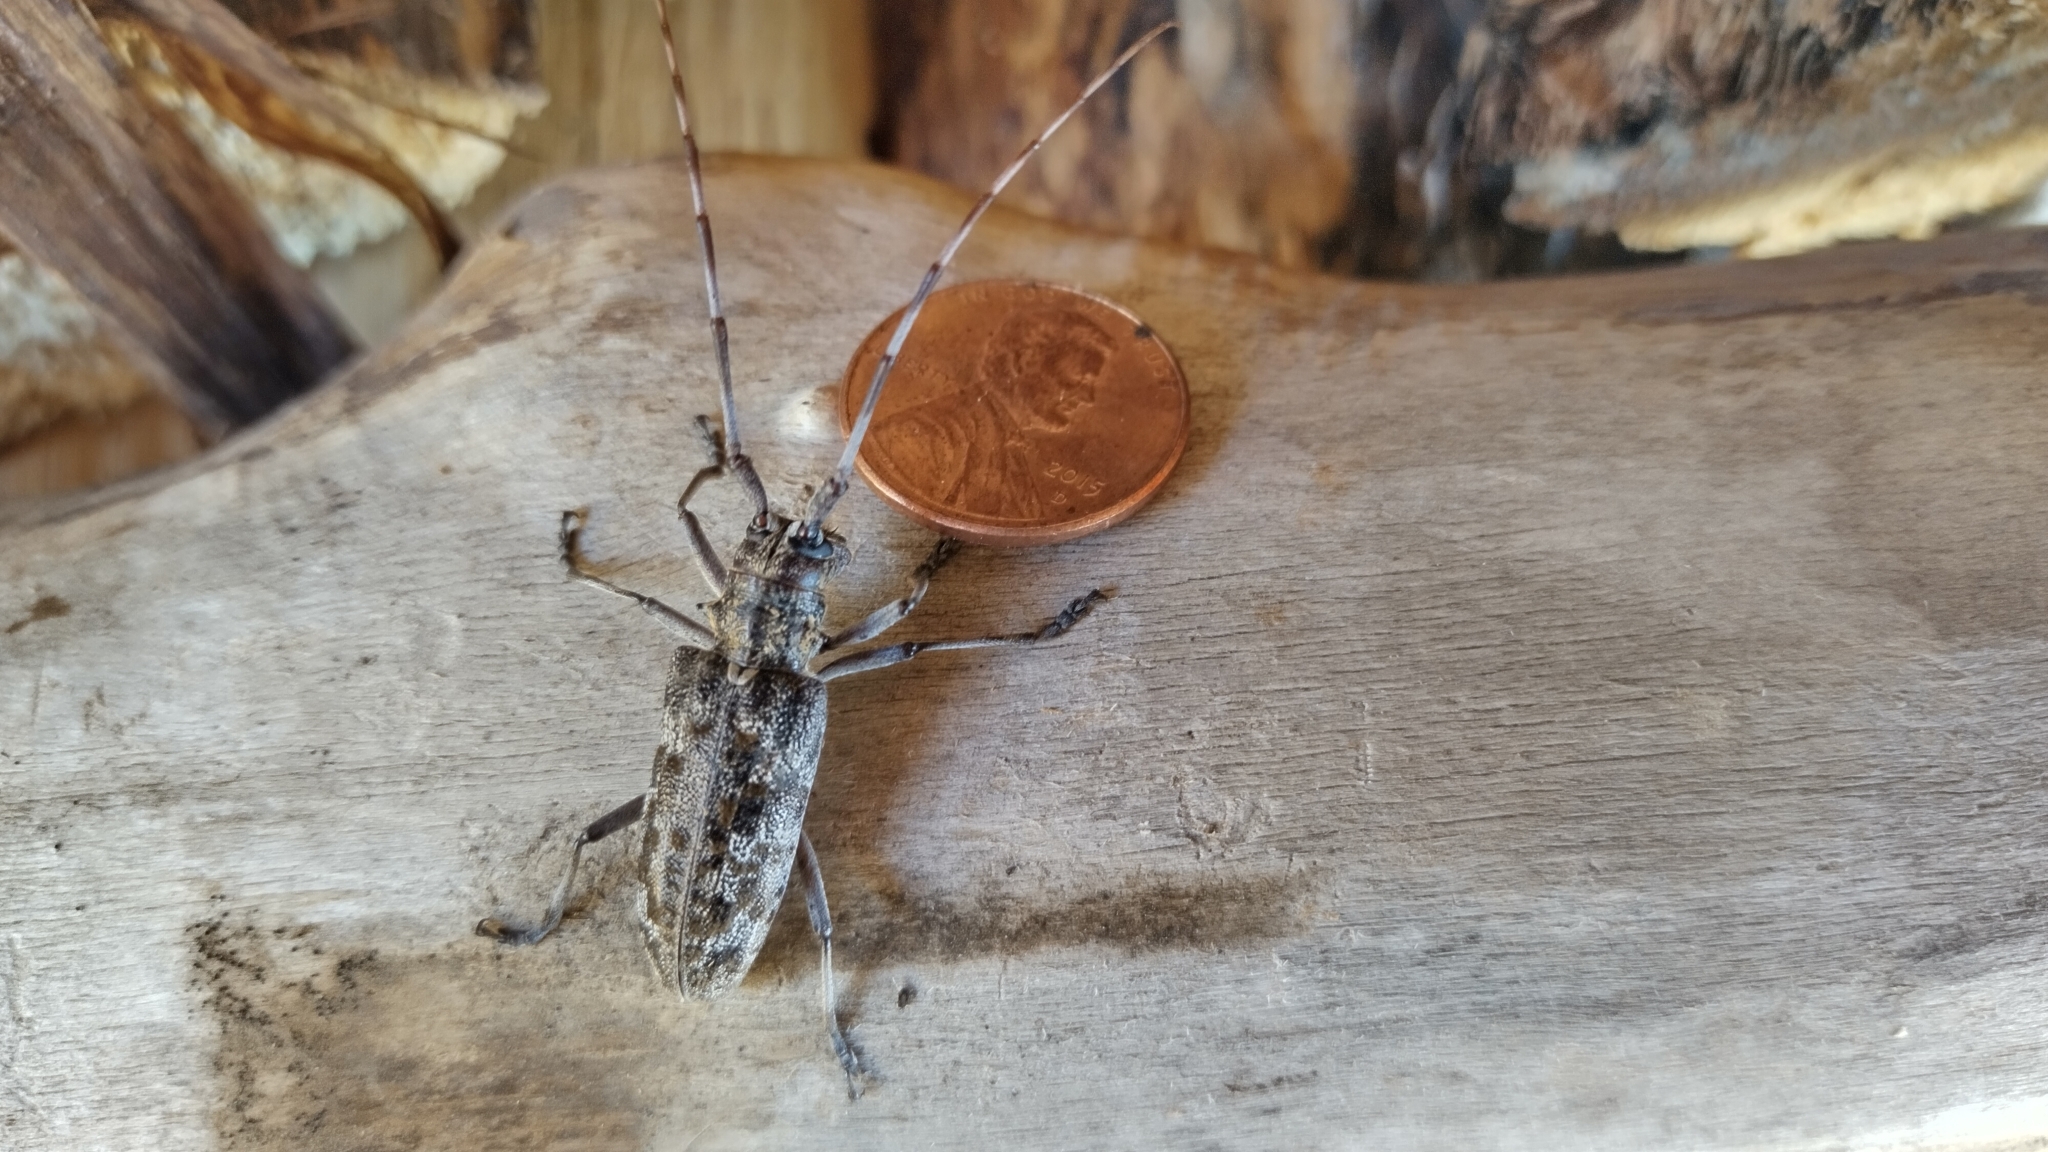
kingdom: Animalia
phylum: Arthropoda
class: Insecta
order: Coleoptera
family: Cerambycidae
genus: Monochamus
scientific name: Monochamus clamator
